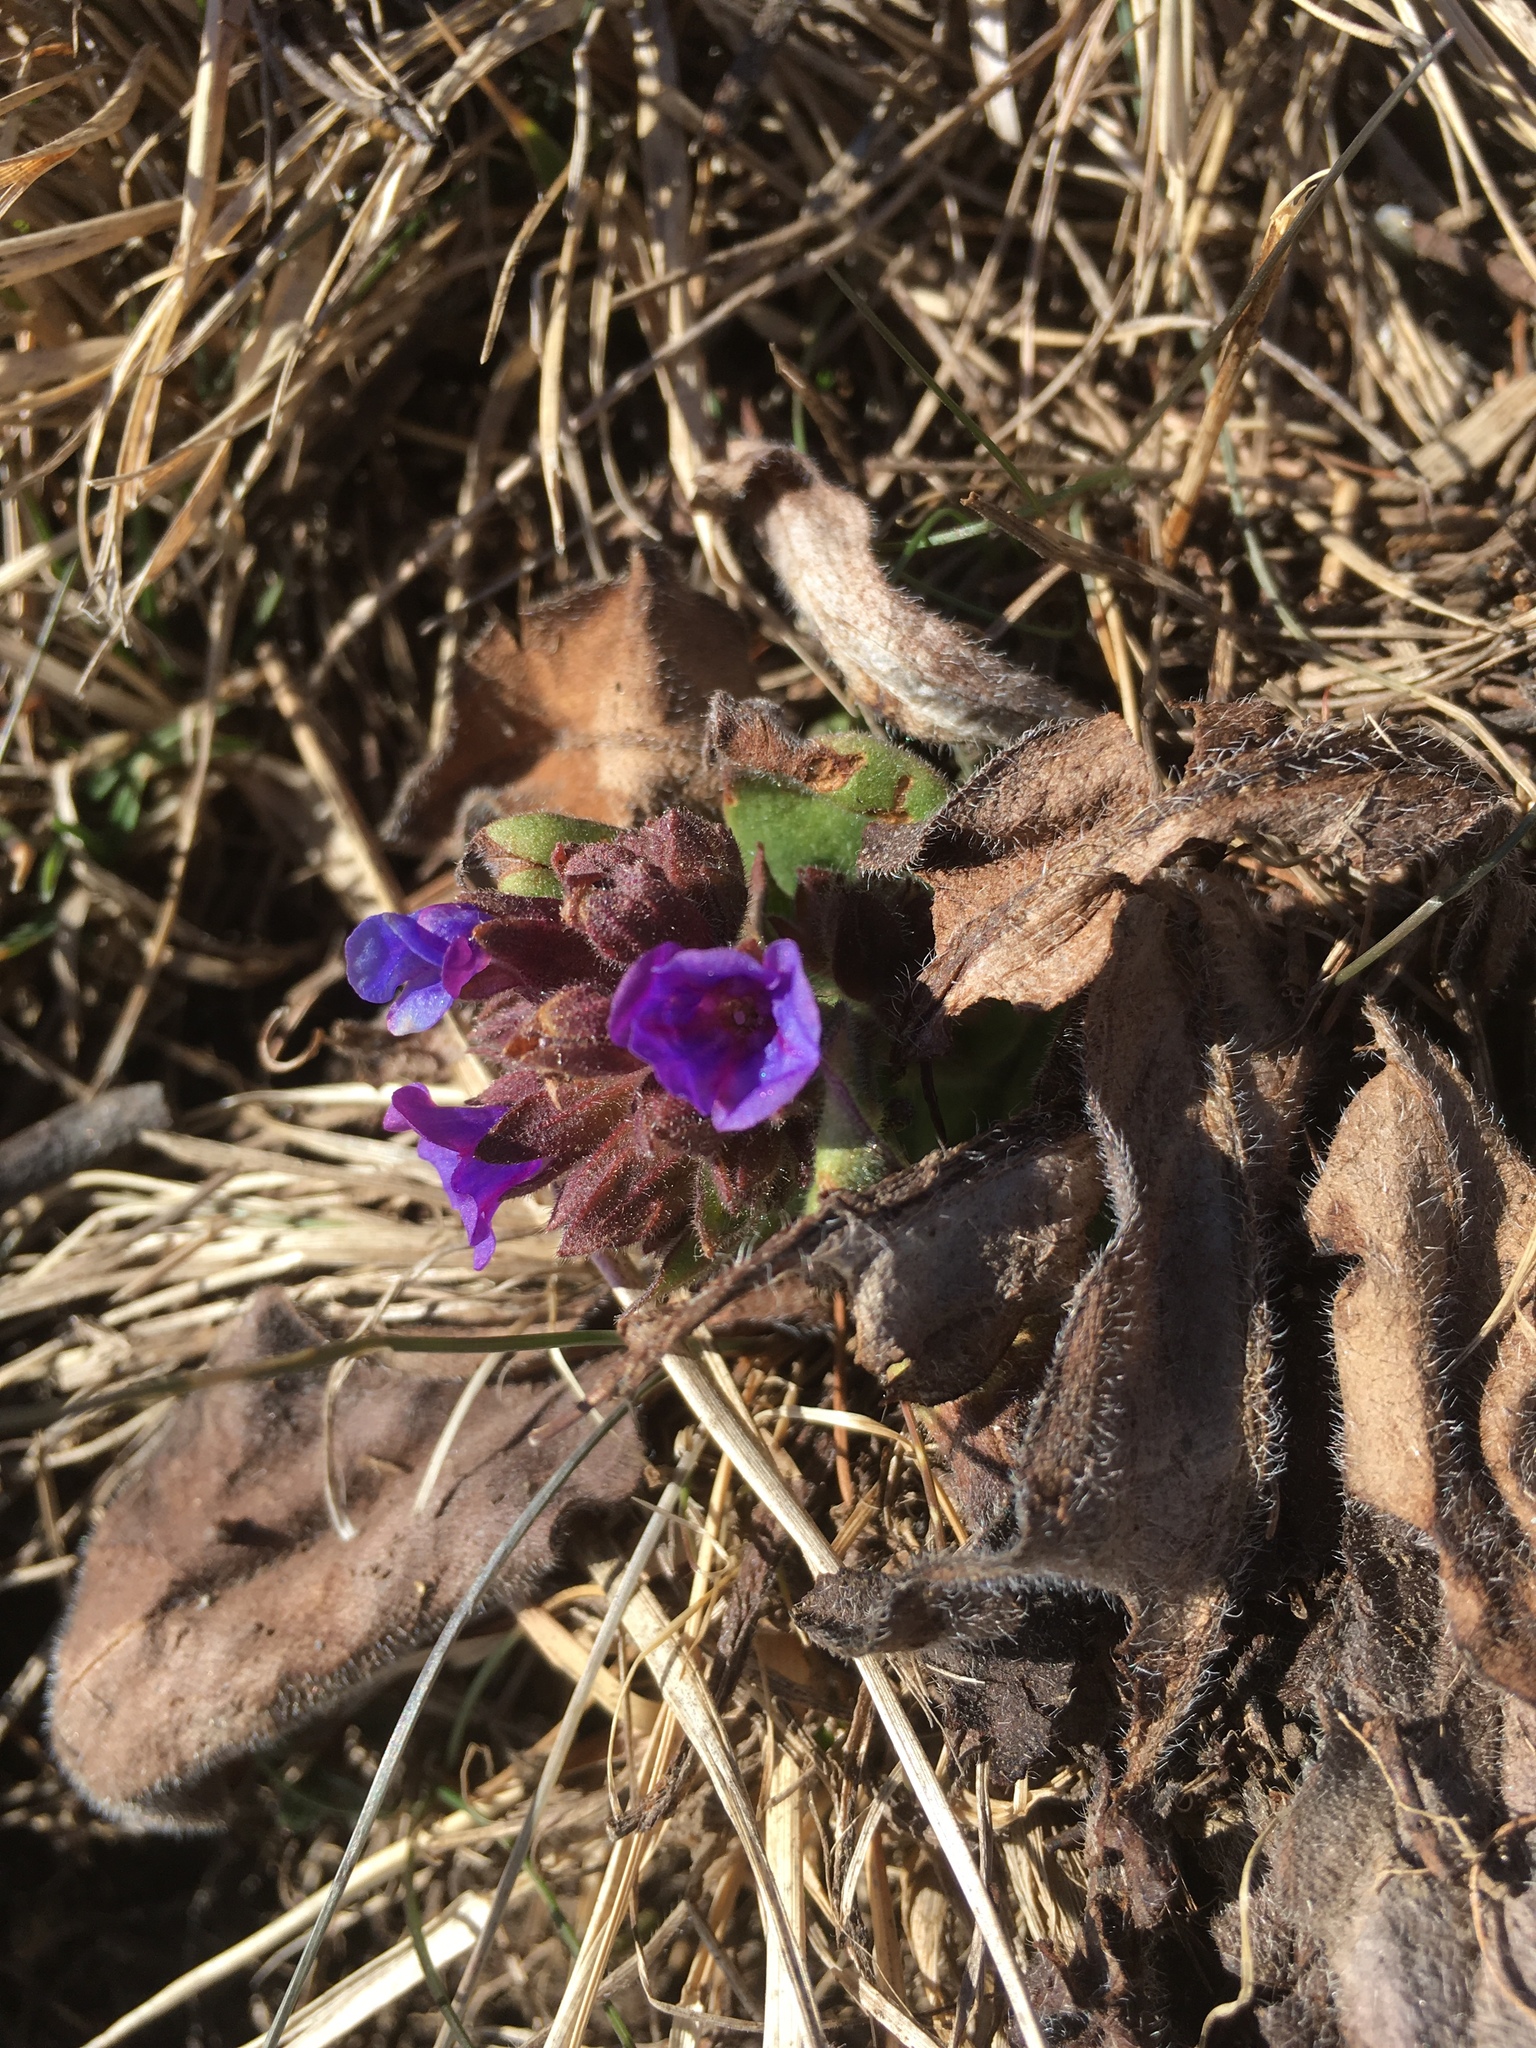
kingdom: Plantae
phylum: Tracheophyta
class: Magnoliopsida
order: Boraginales
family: Boraginaceae
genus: Pulmonaria
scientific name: Pulmonaria australis
